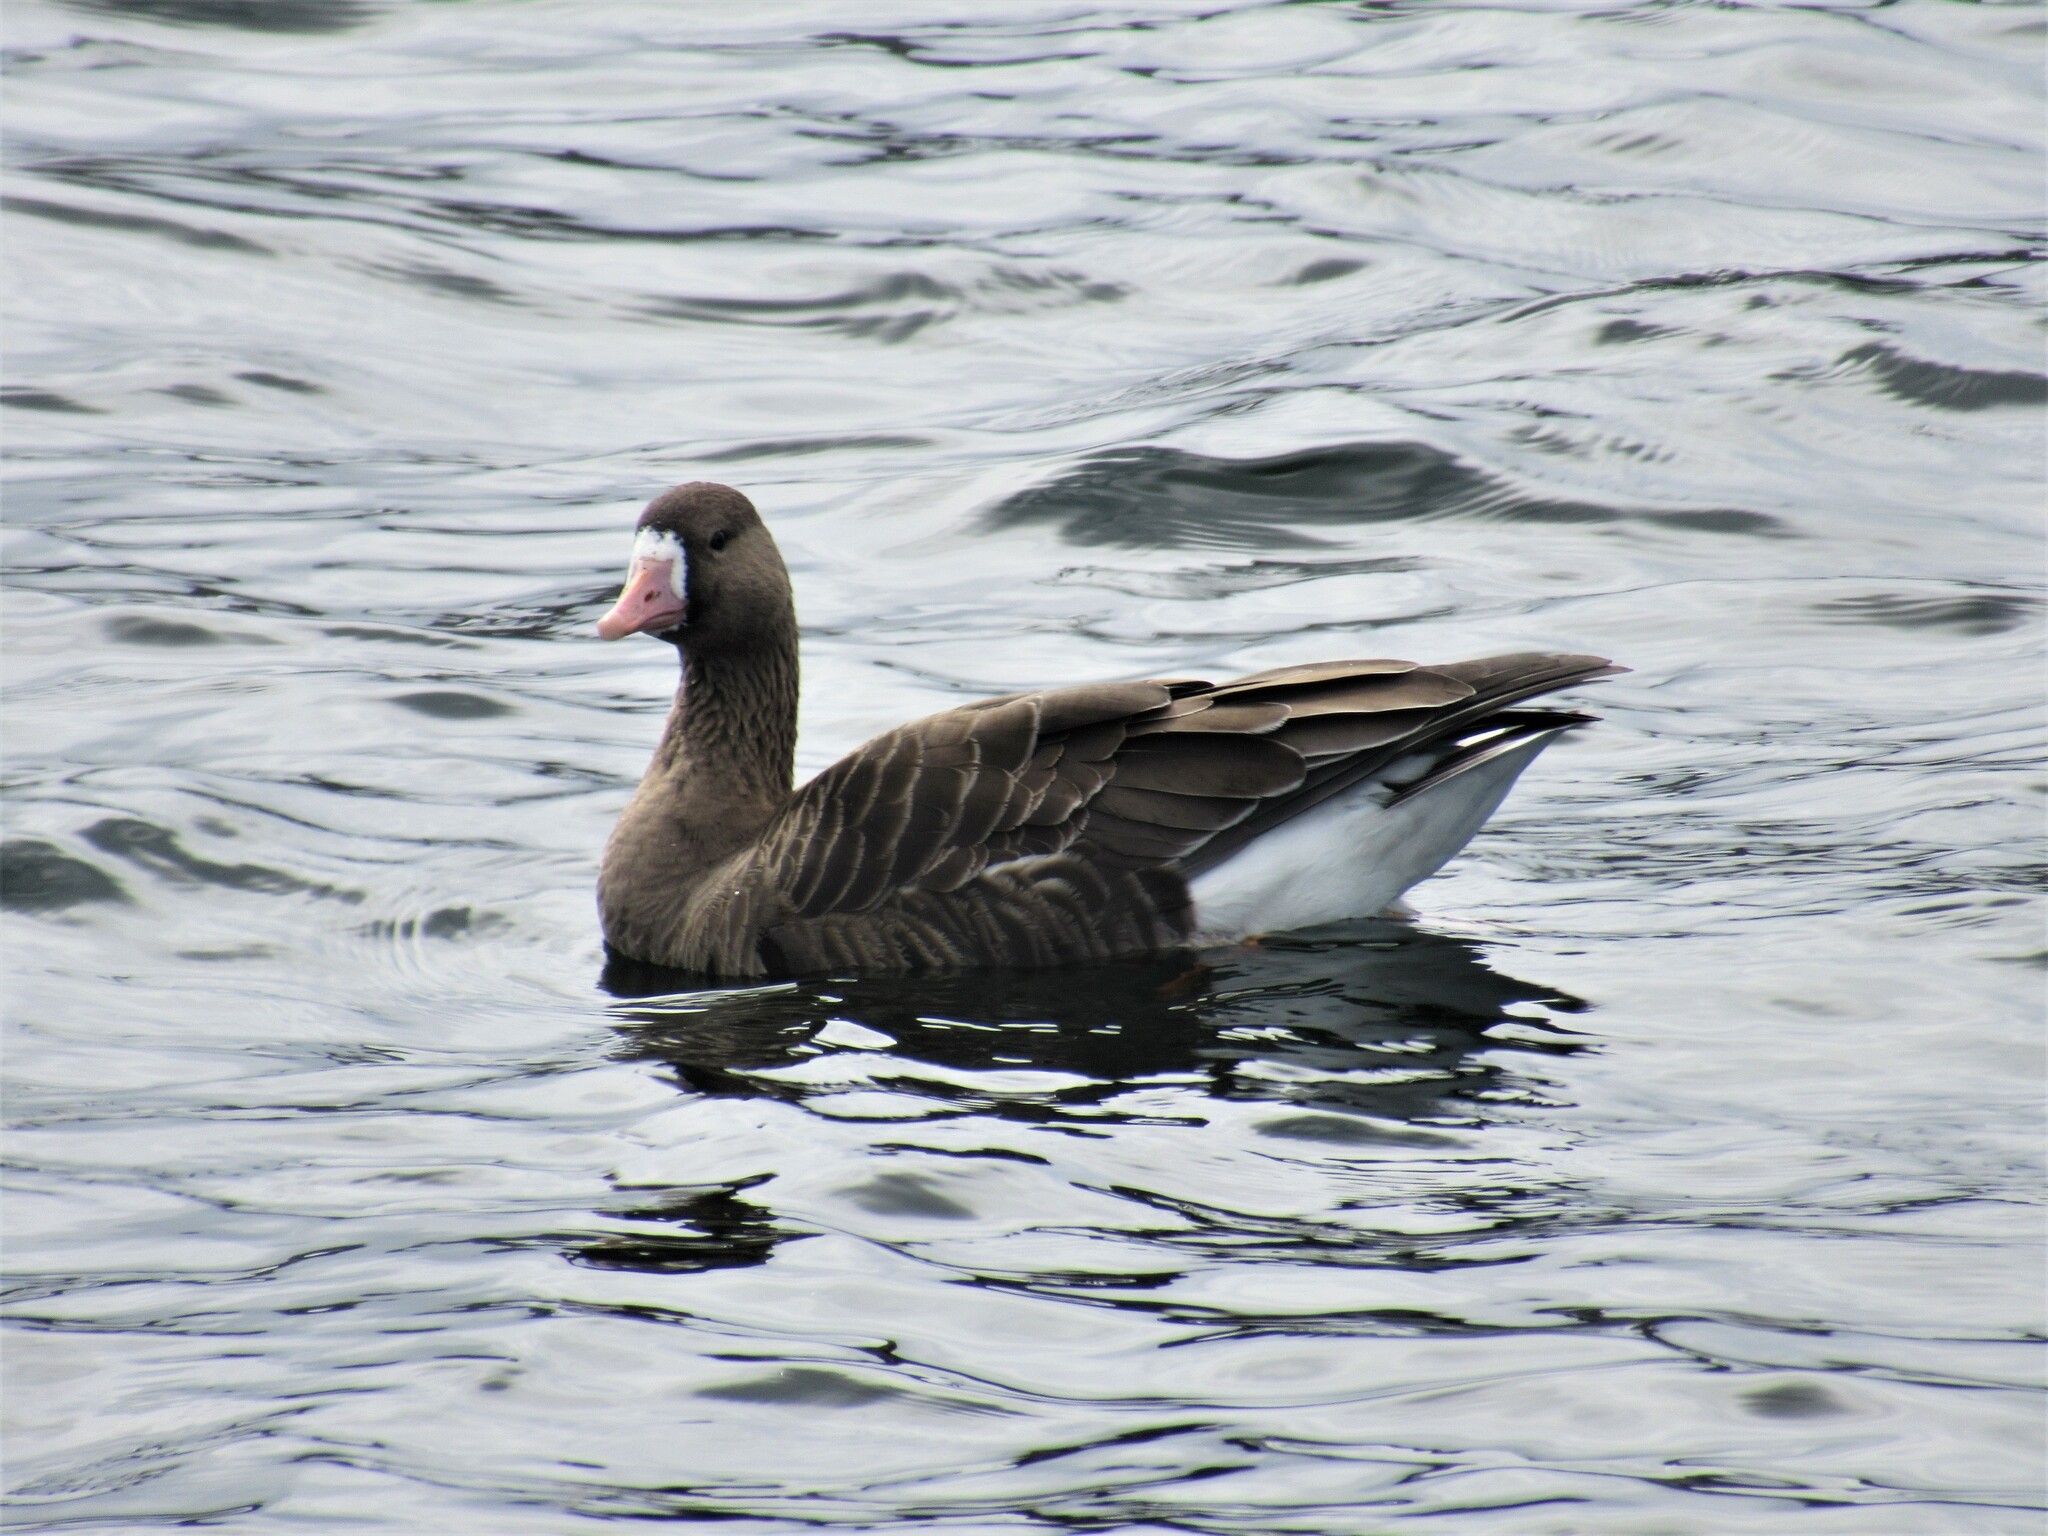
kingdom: Animalia
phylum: Chordata
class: Aves
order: Anseriformes
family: Anatidae
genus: Anser
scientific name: Anser albifrons
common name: Greater white-fronted goose
